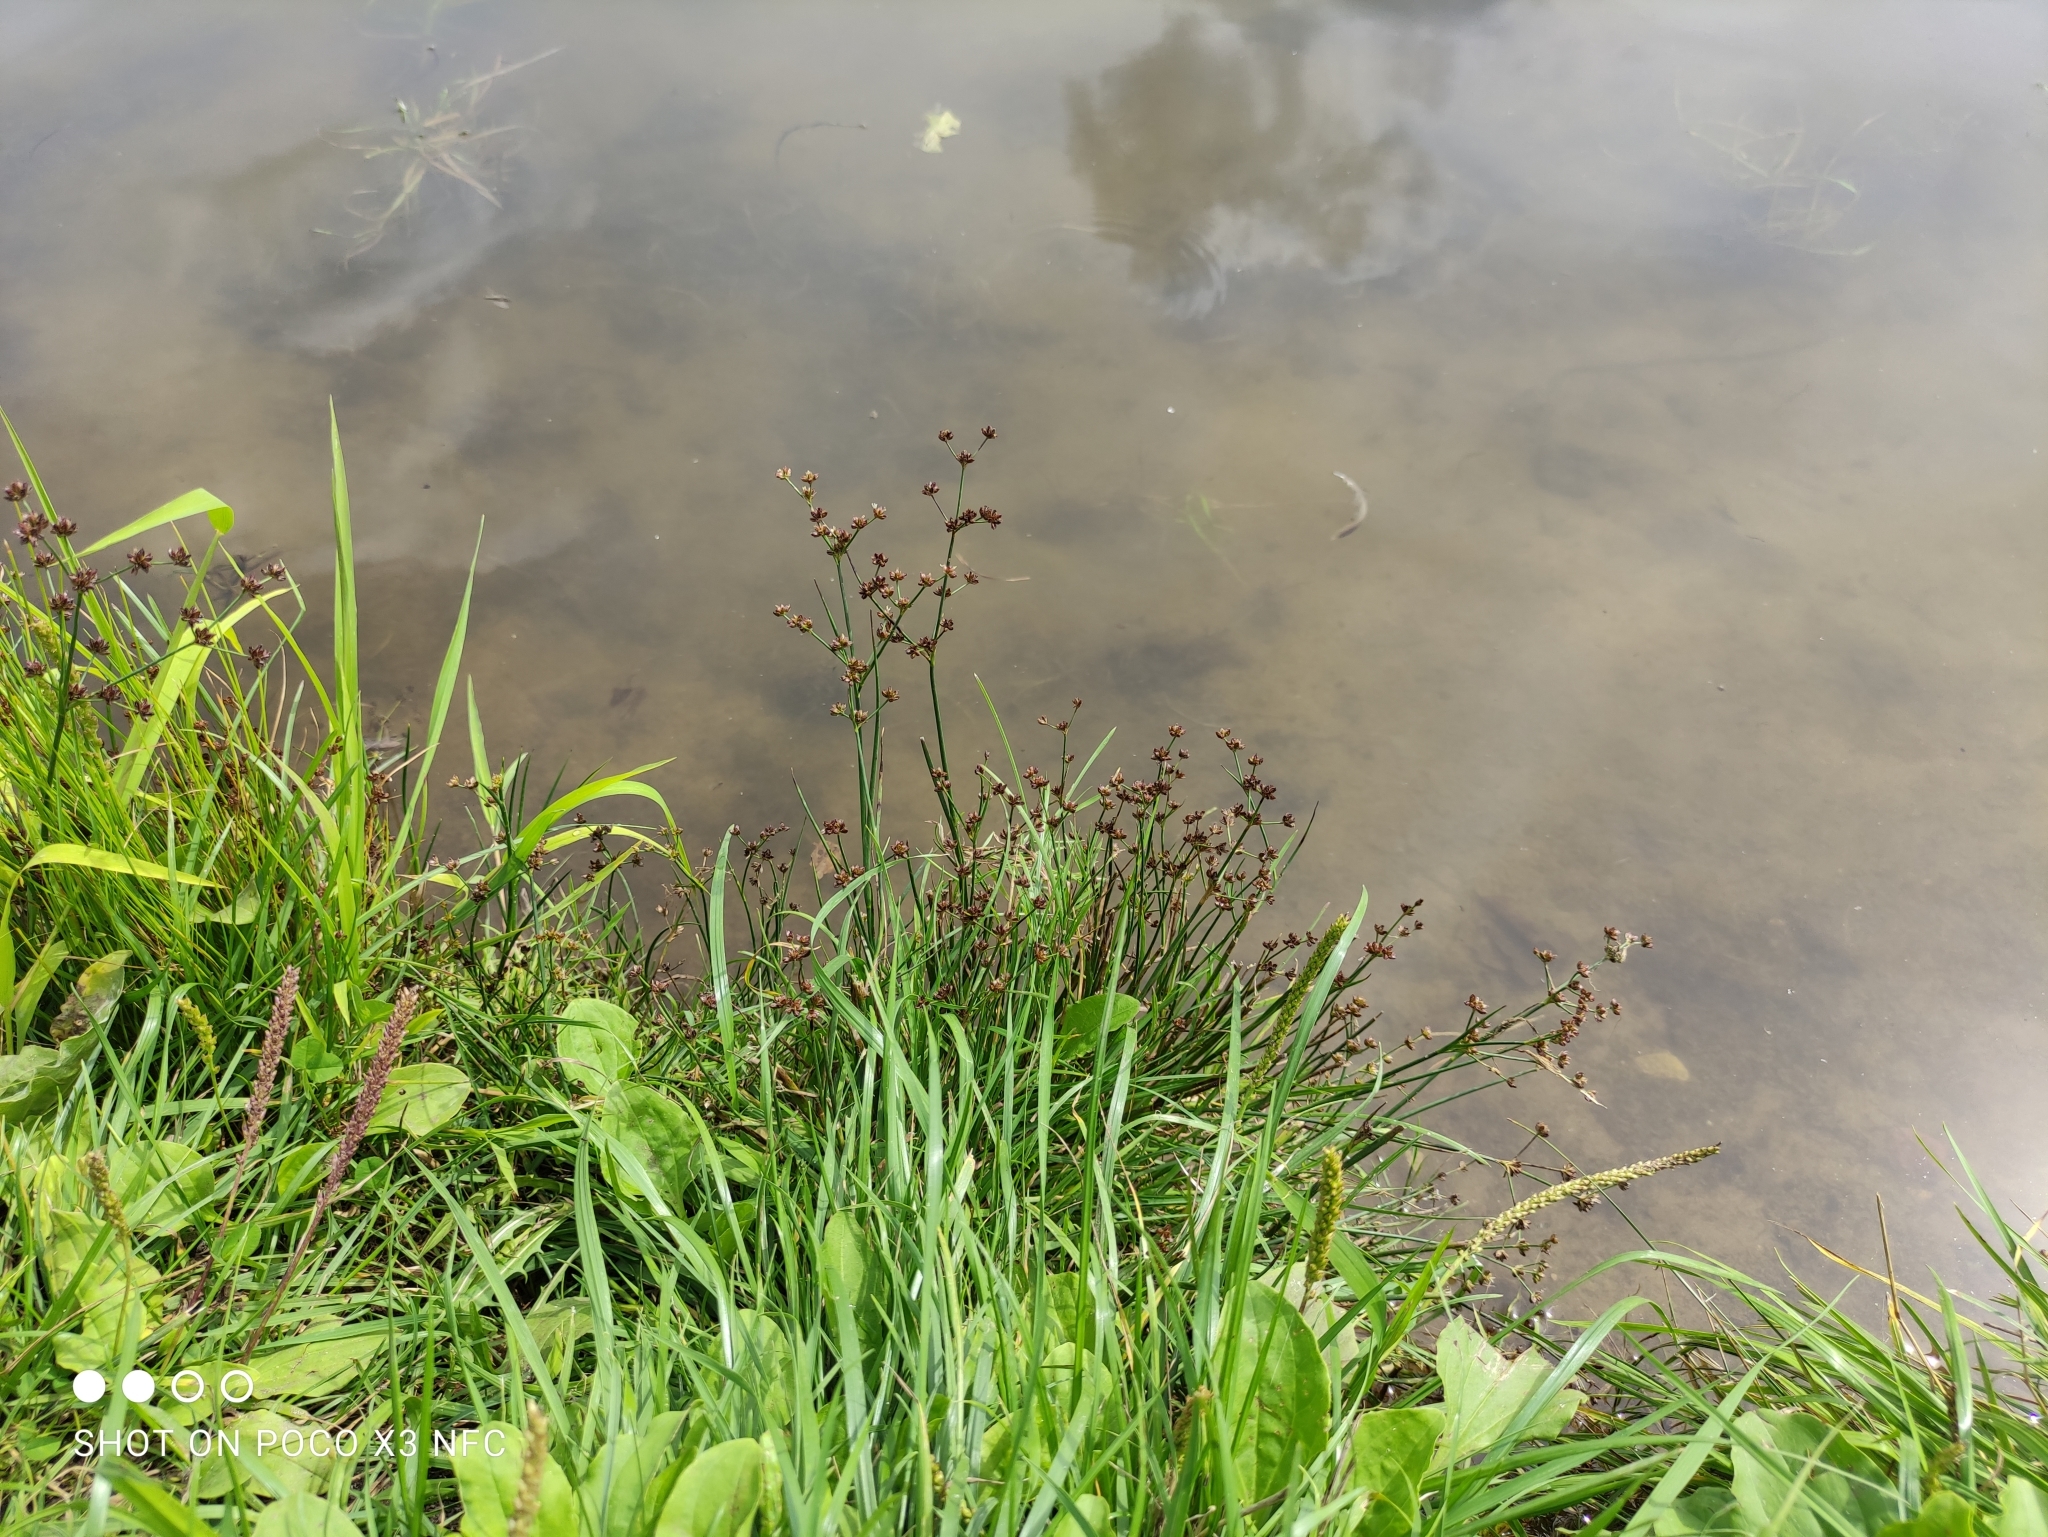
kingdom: Plantae
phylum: Tracheophyta
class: Liliopsida
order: Poales
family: Juncaceae
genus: Juncus
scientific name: Juncus articulatus
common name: Jointed rush
